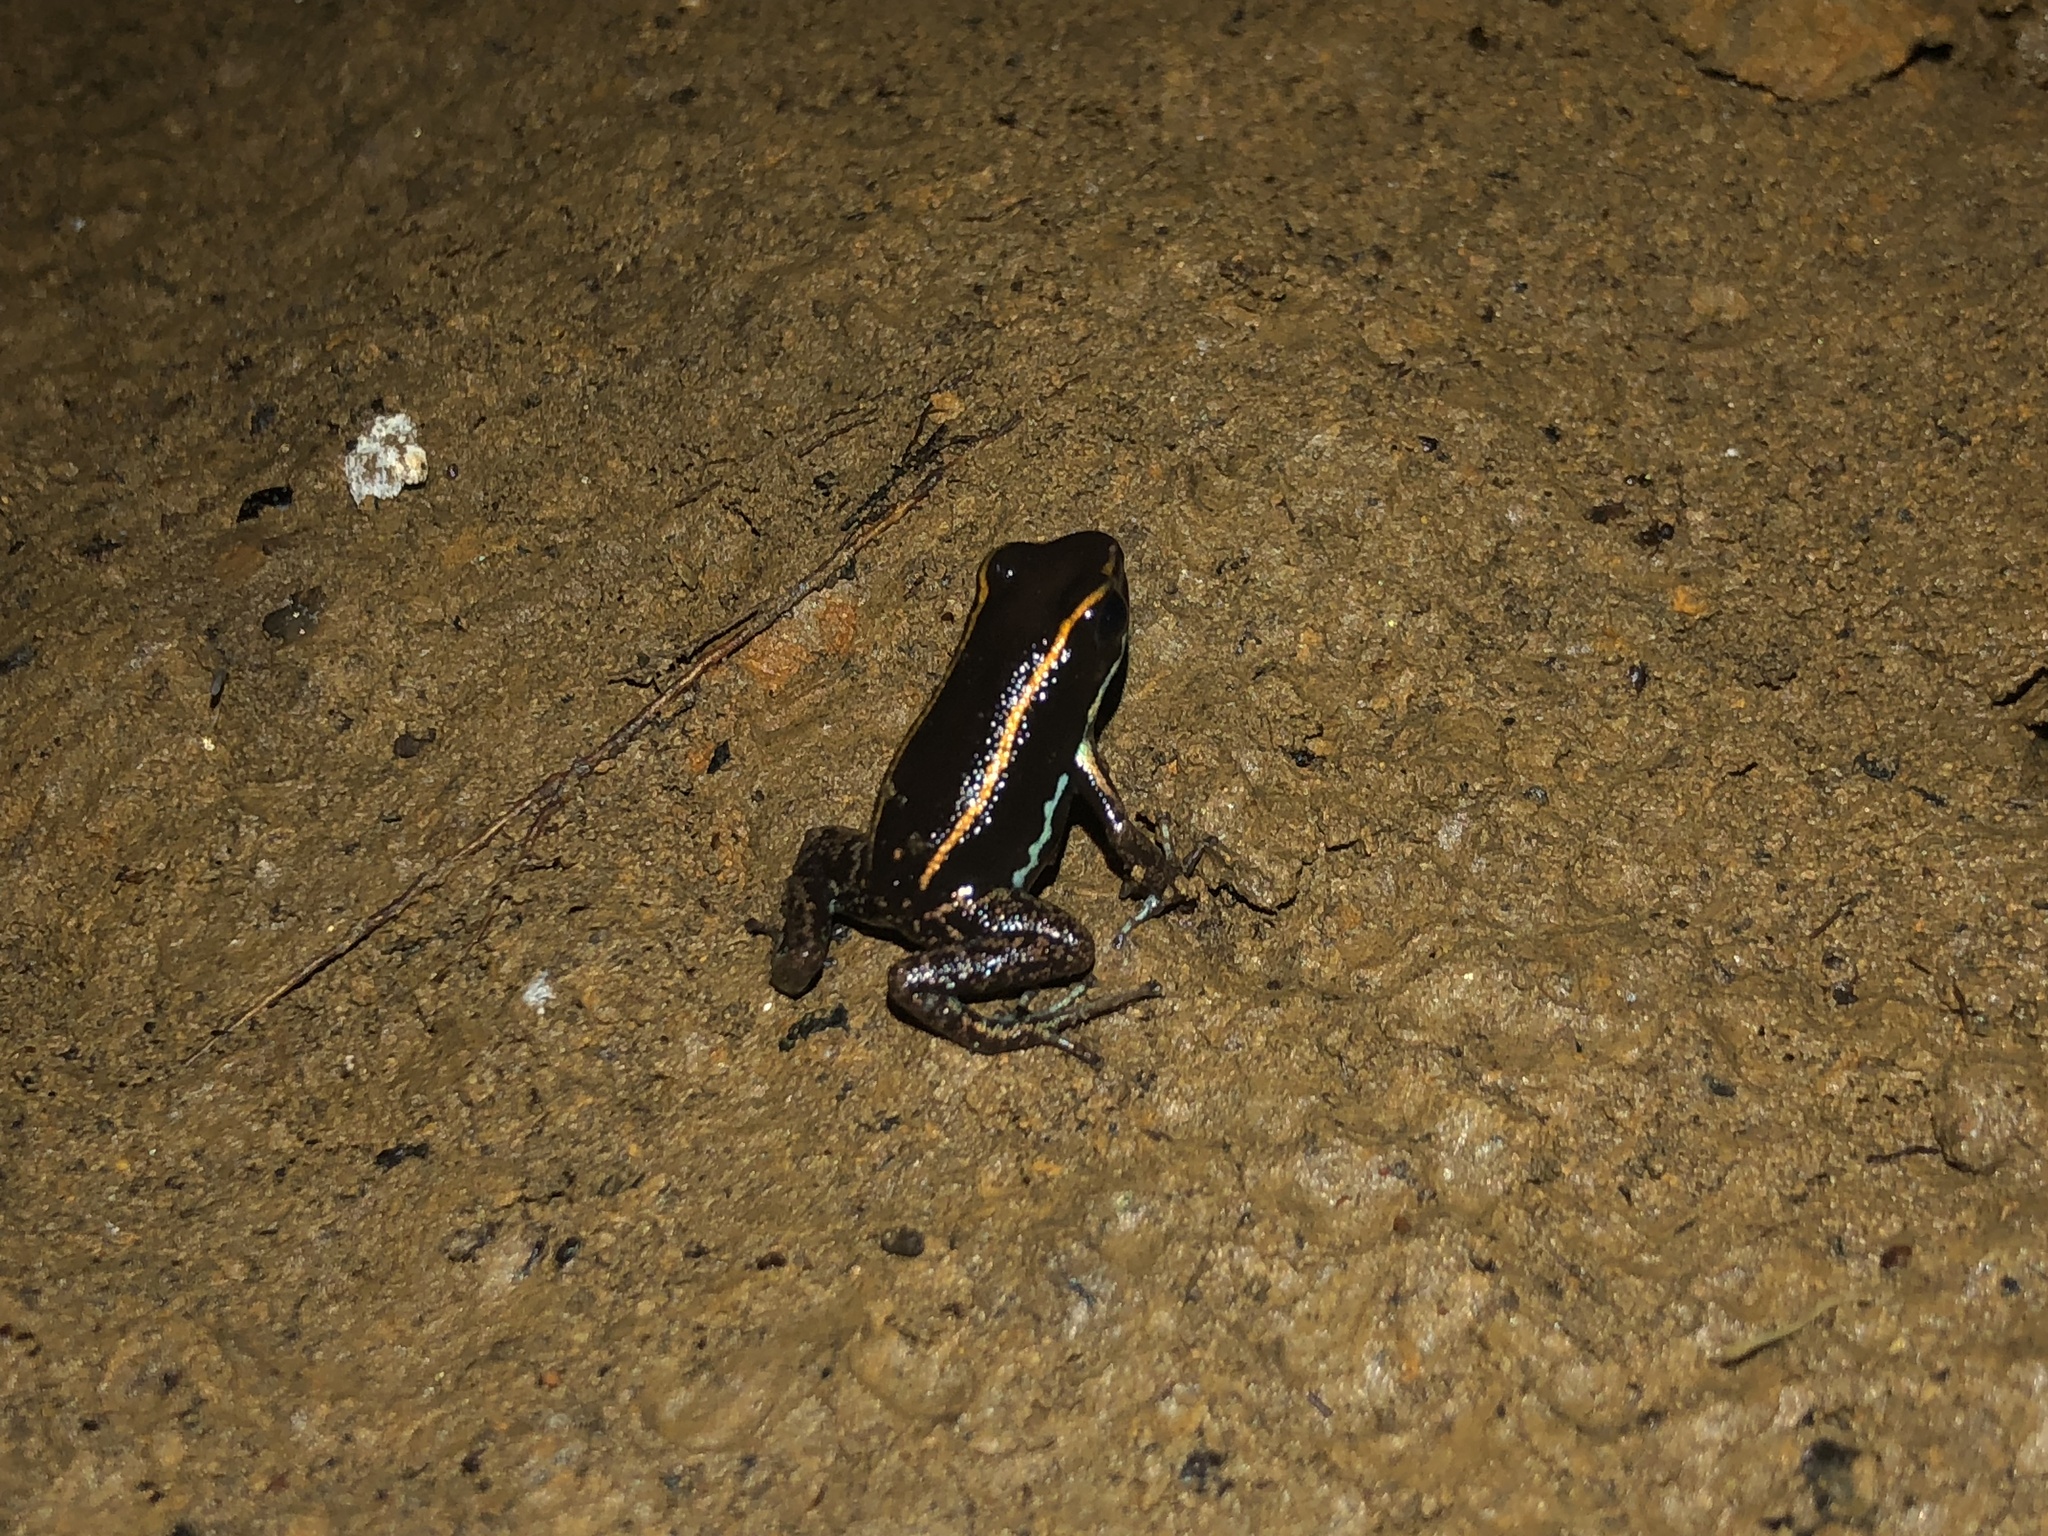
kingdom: Animalia
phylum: Chordata
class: Amphibia
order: Anura
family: Dendrobatidae
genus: Phyllobates
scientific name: Phyllobates lugubris
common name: Lovely poison frog
